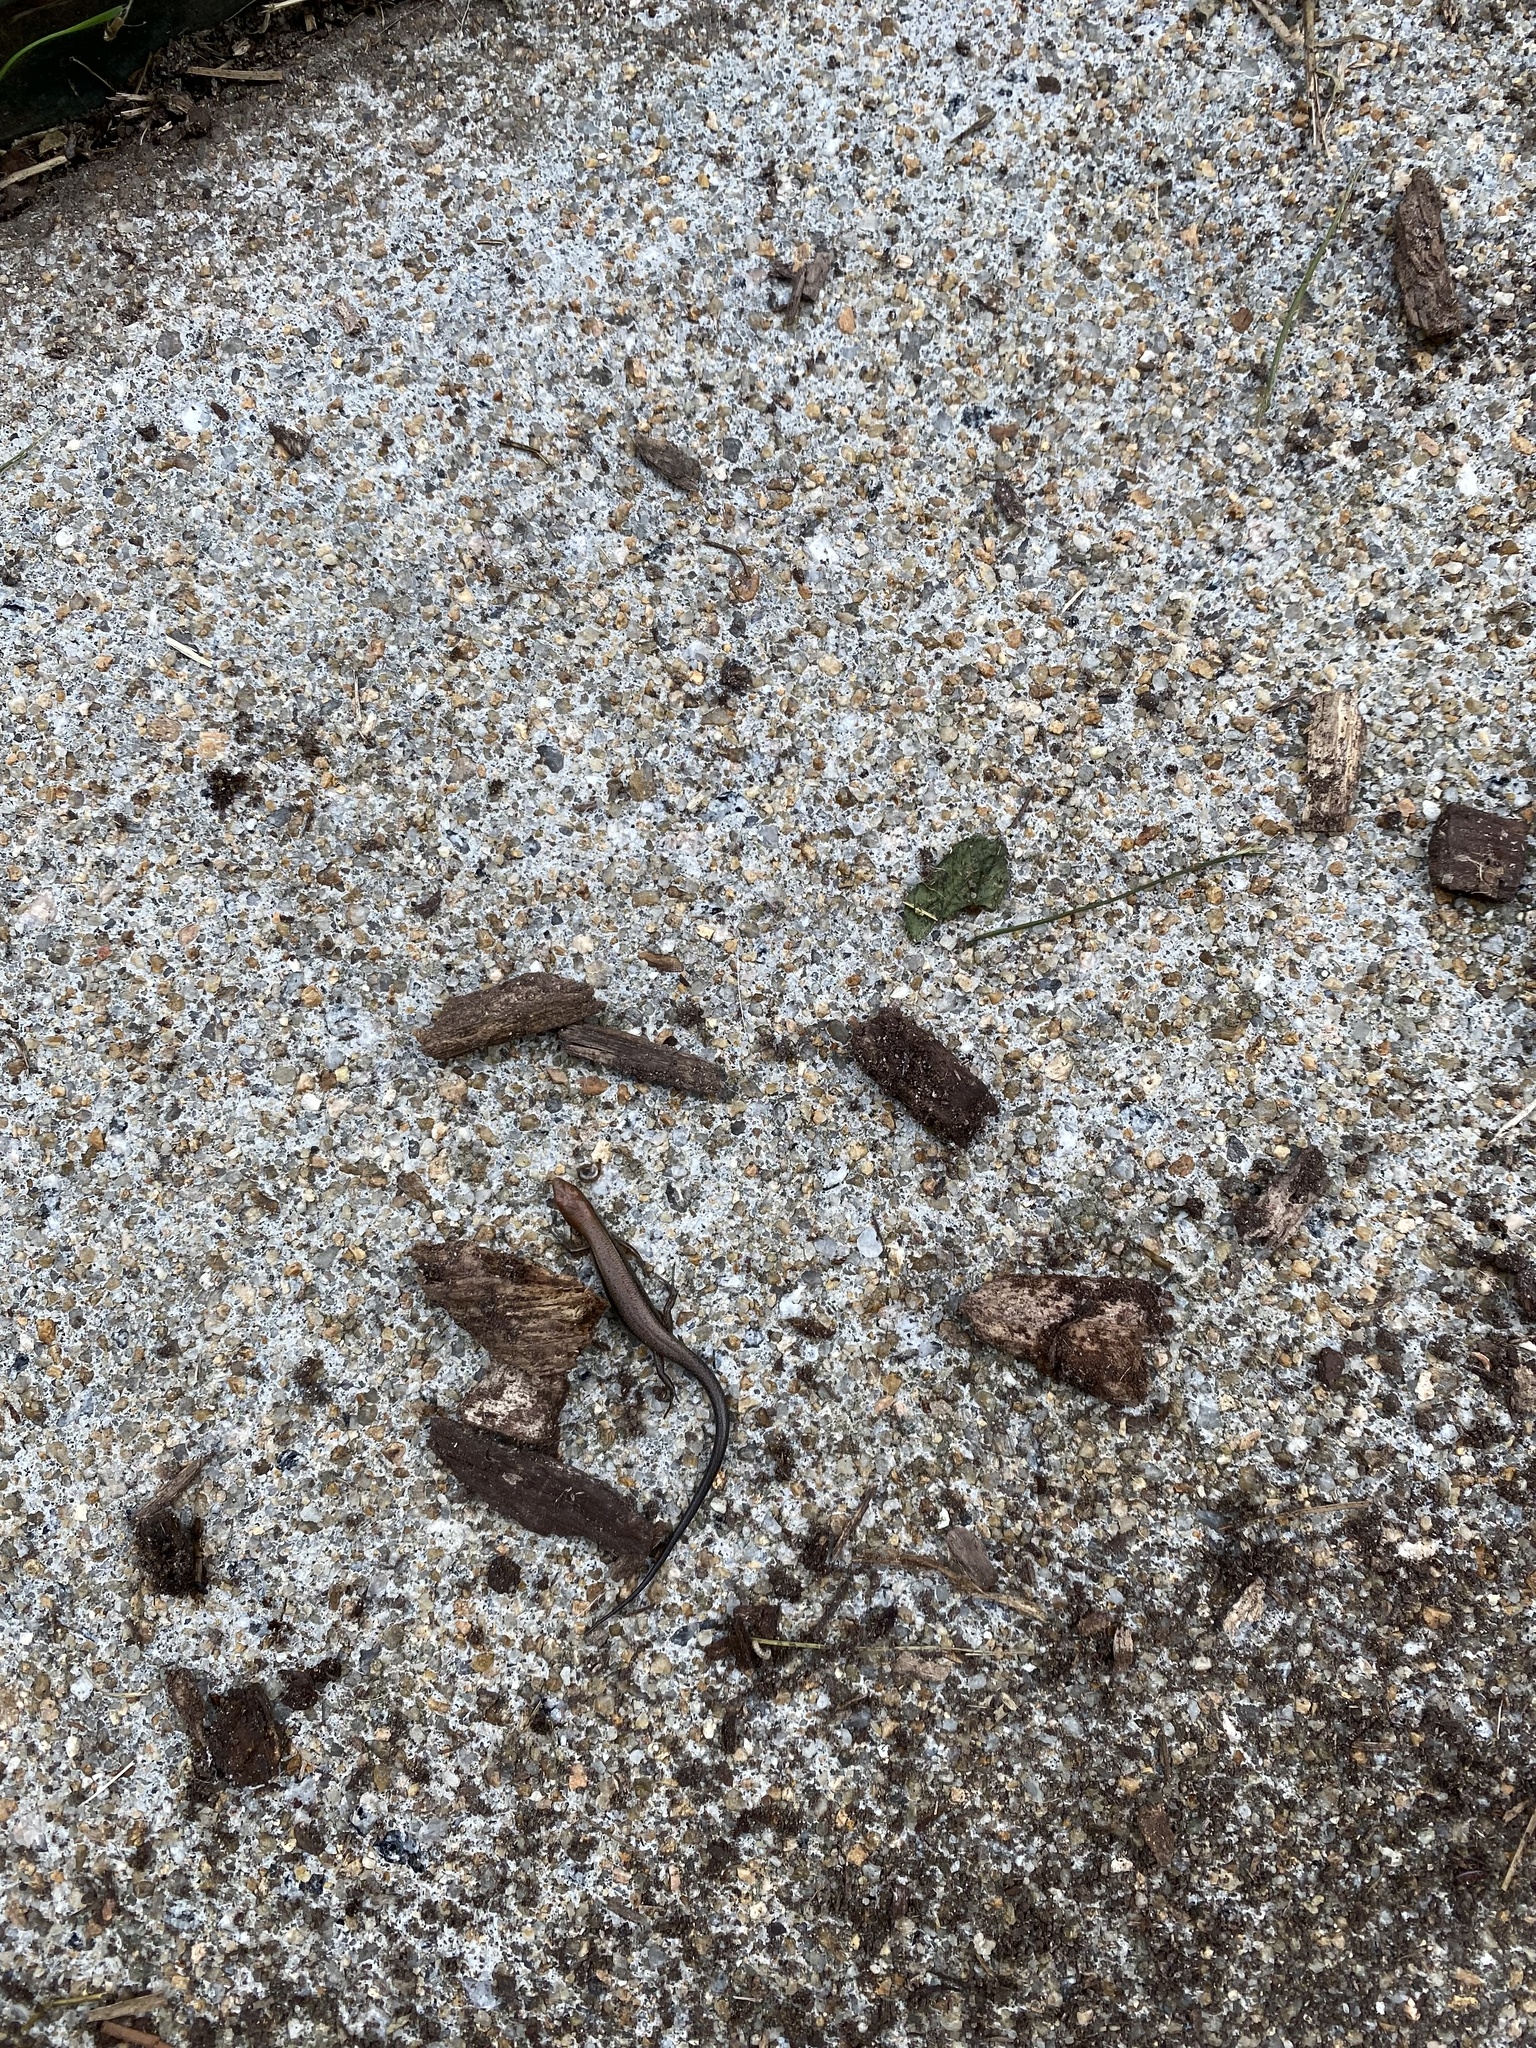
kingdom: Animalia
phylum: Chordata
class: Squamata
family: Scincidae
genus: Scincella
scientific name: Scincella lateralis
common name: Ground skink
